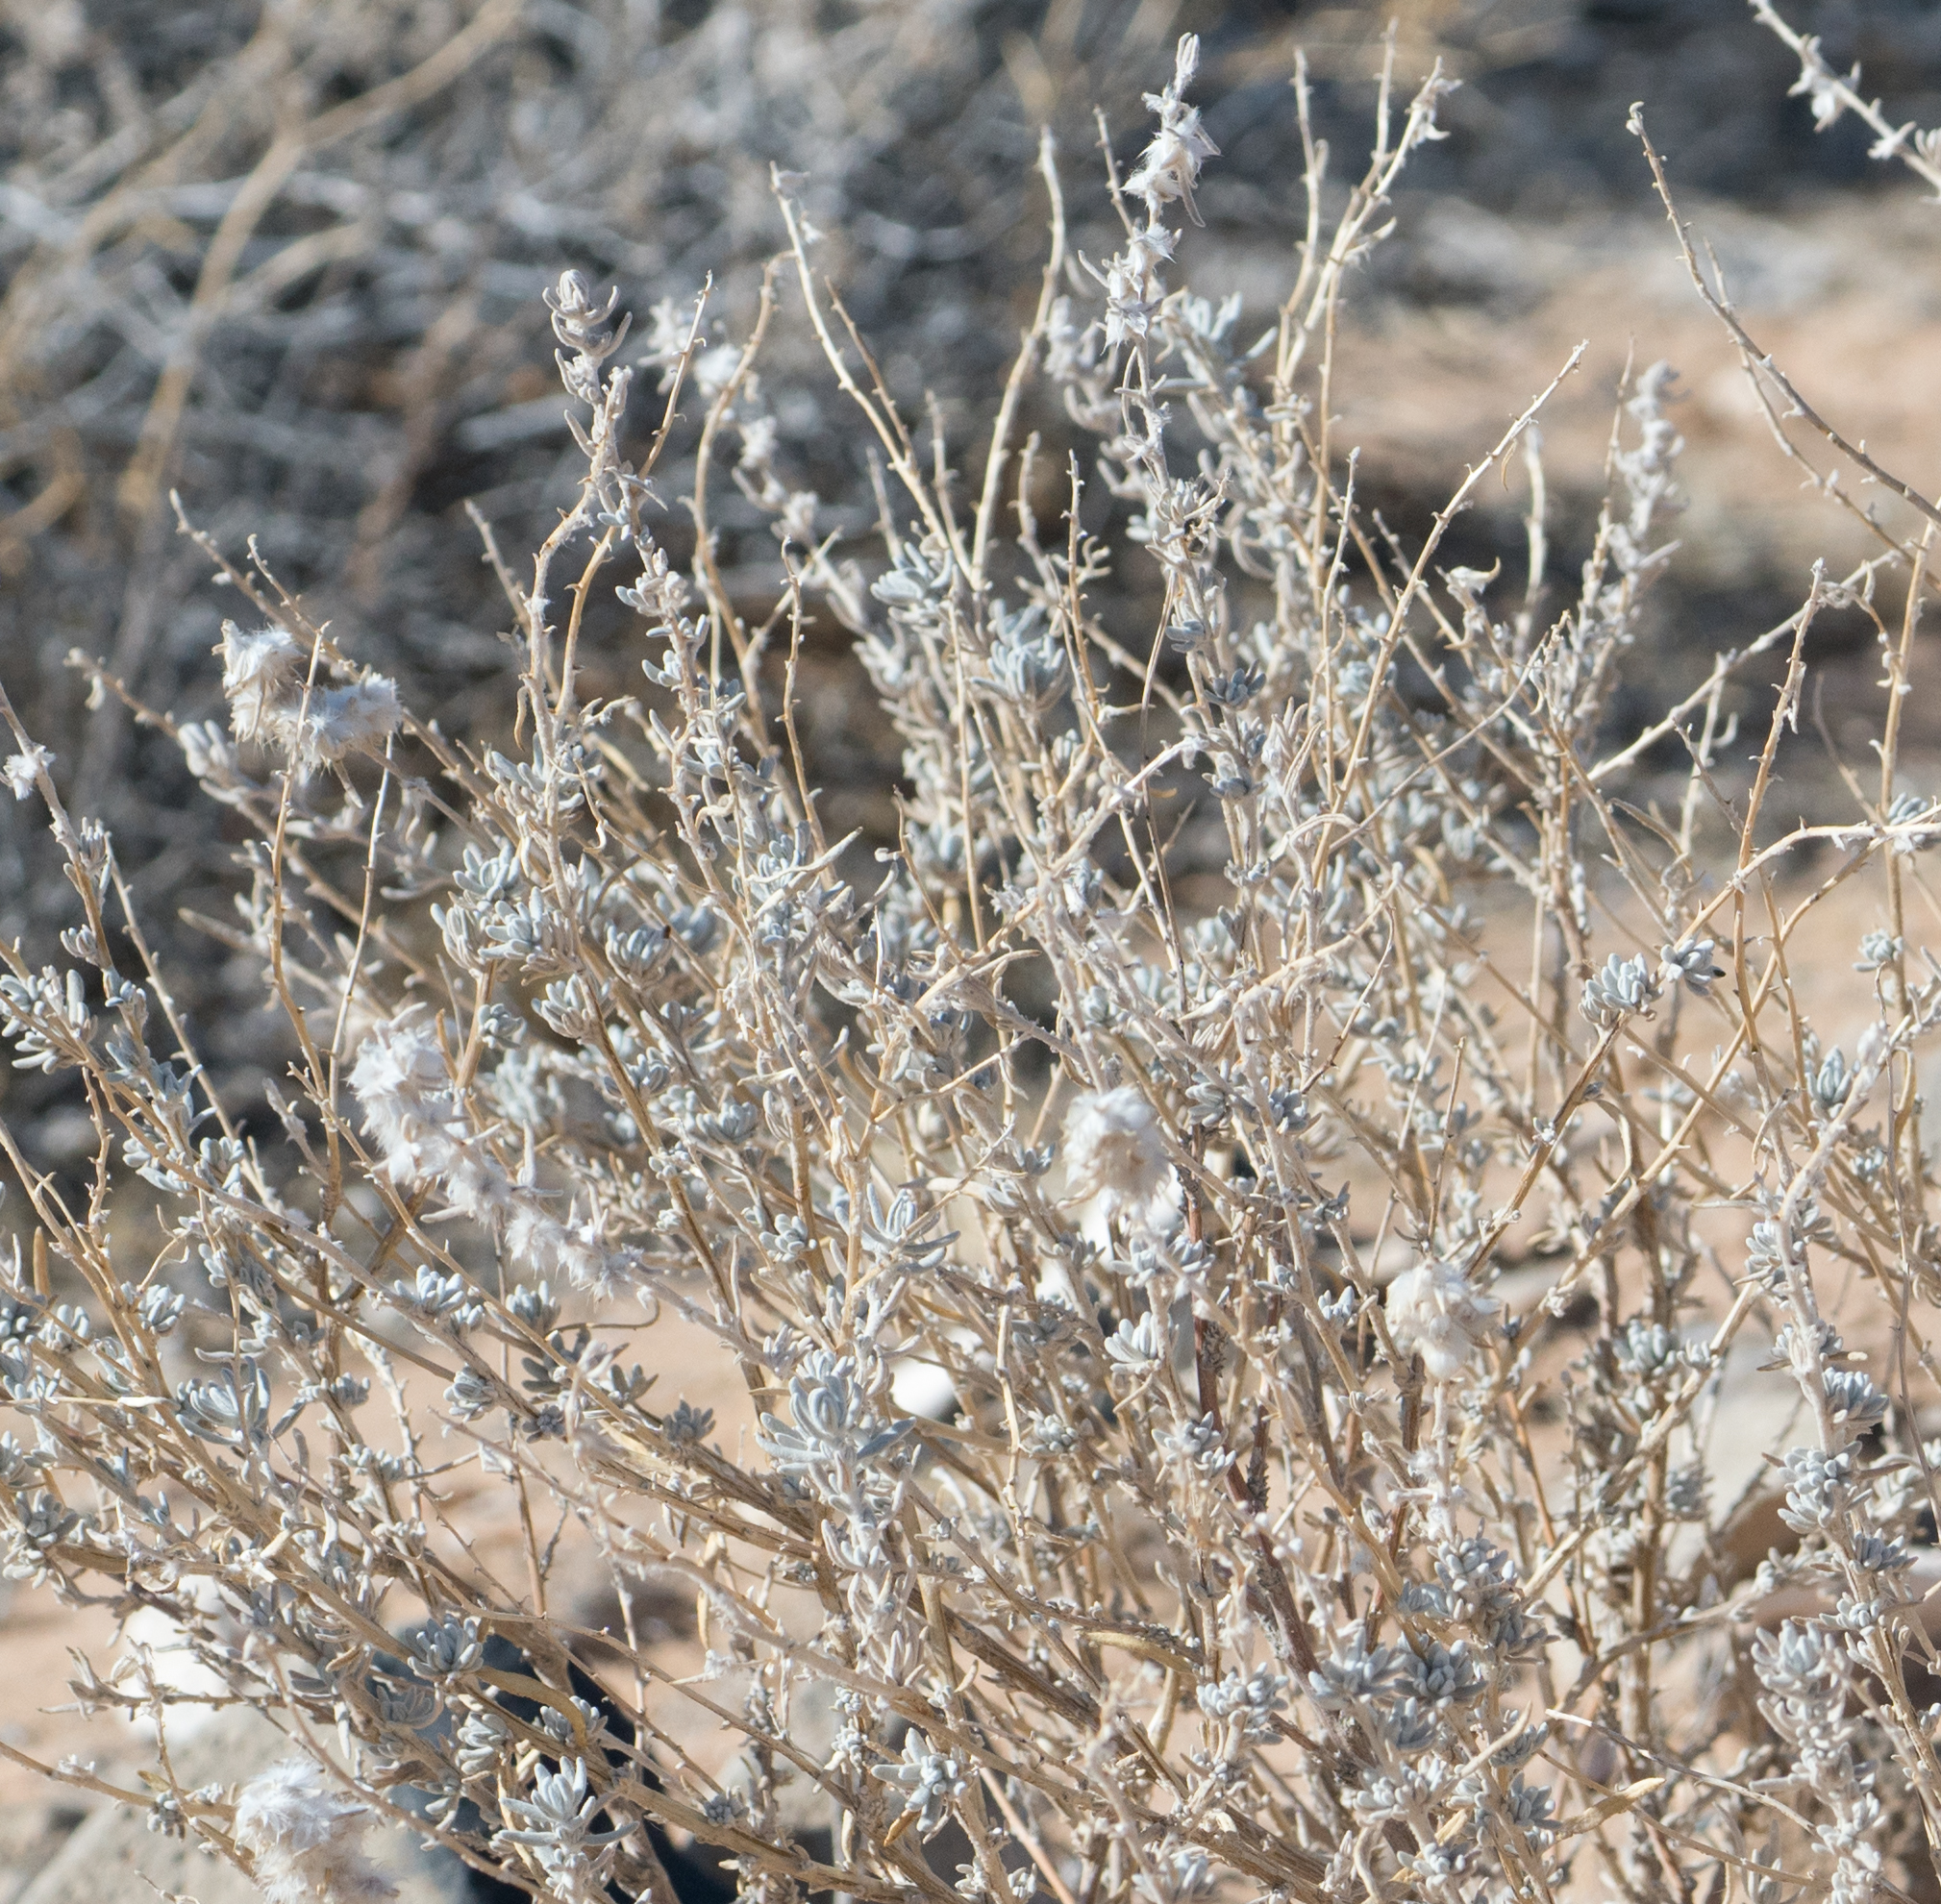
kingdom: Plantae
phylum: Tracheophyta
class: Magnoliopsida
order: Caryophyllales
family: Amaranthaceae
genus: Krascheninnikovia
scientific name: Krascheninnikovia lanata
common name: Winterfat
